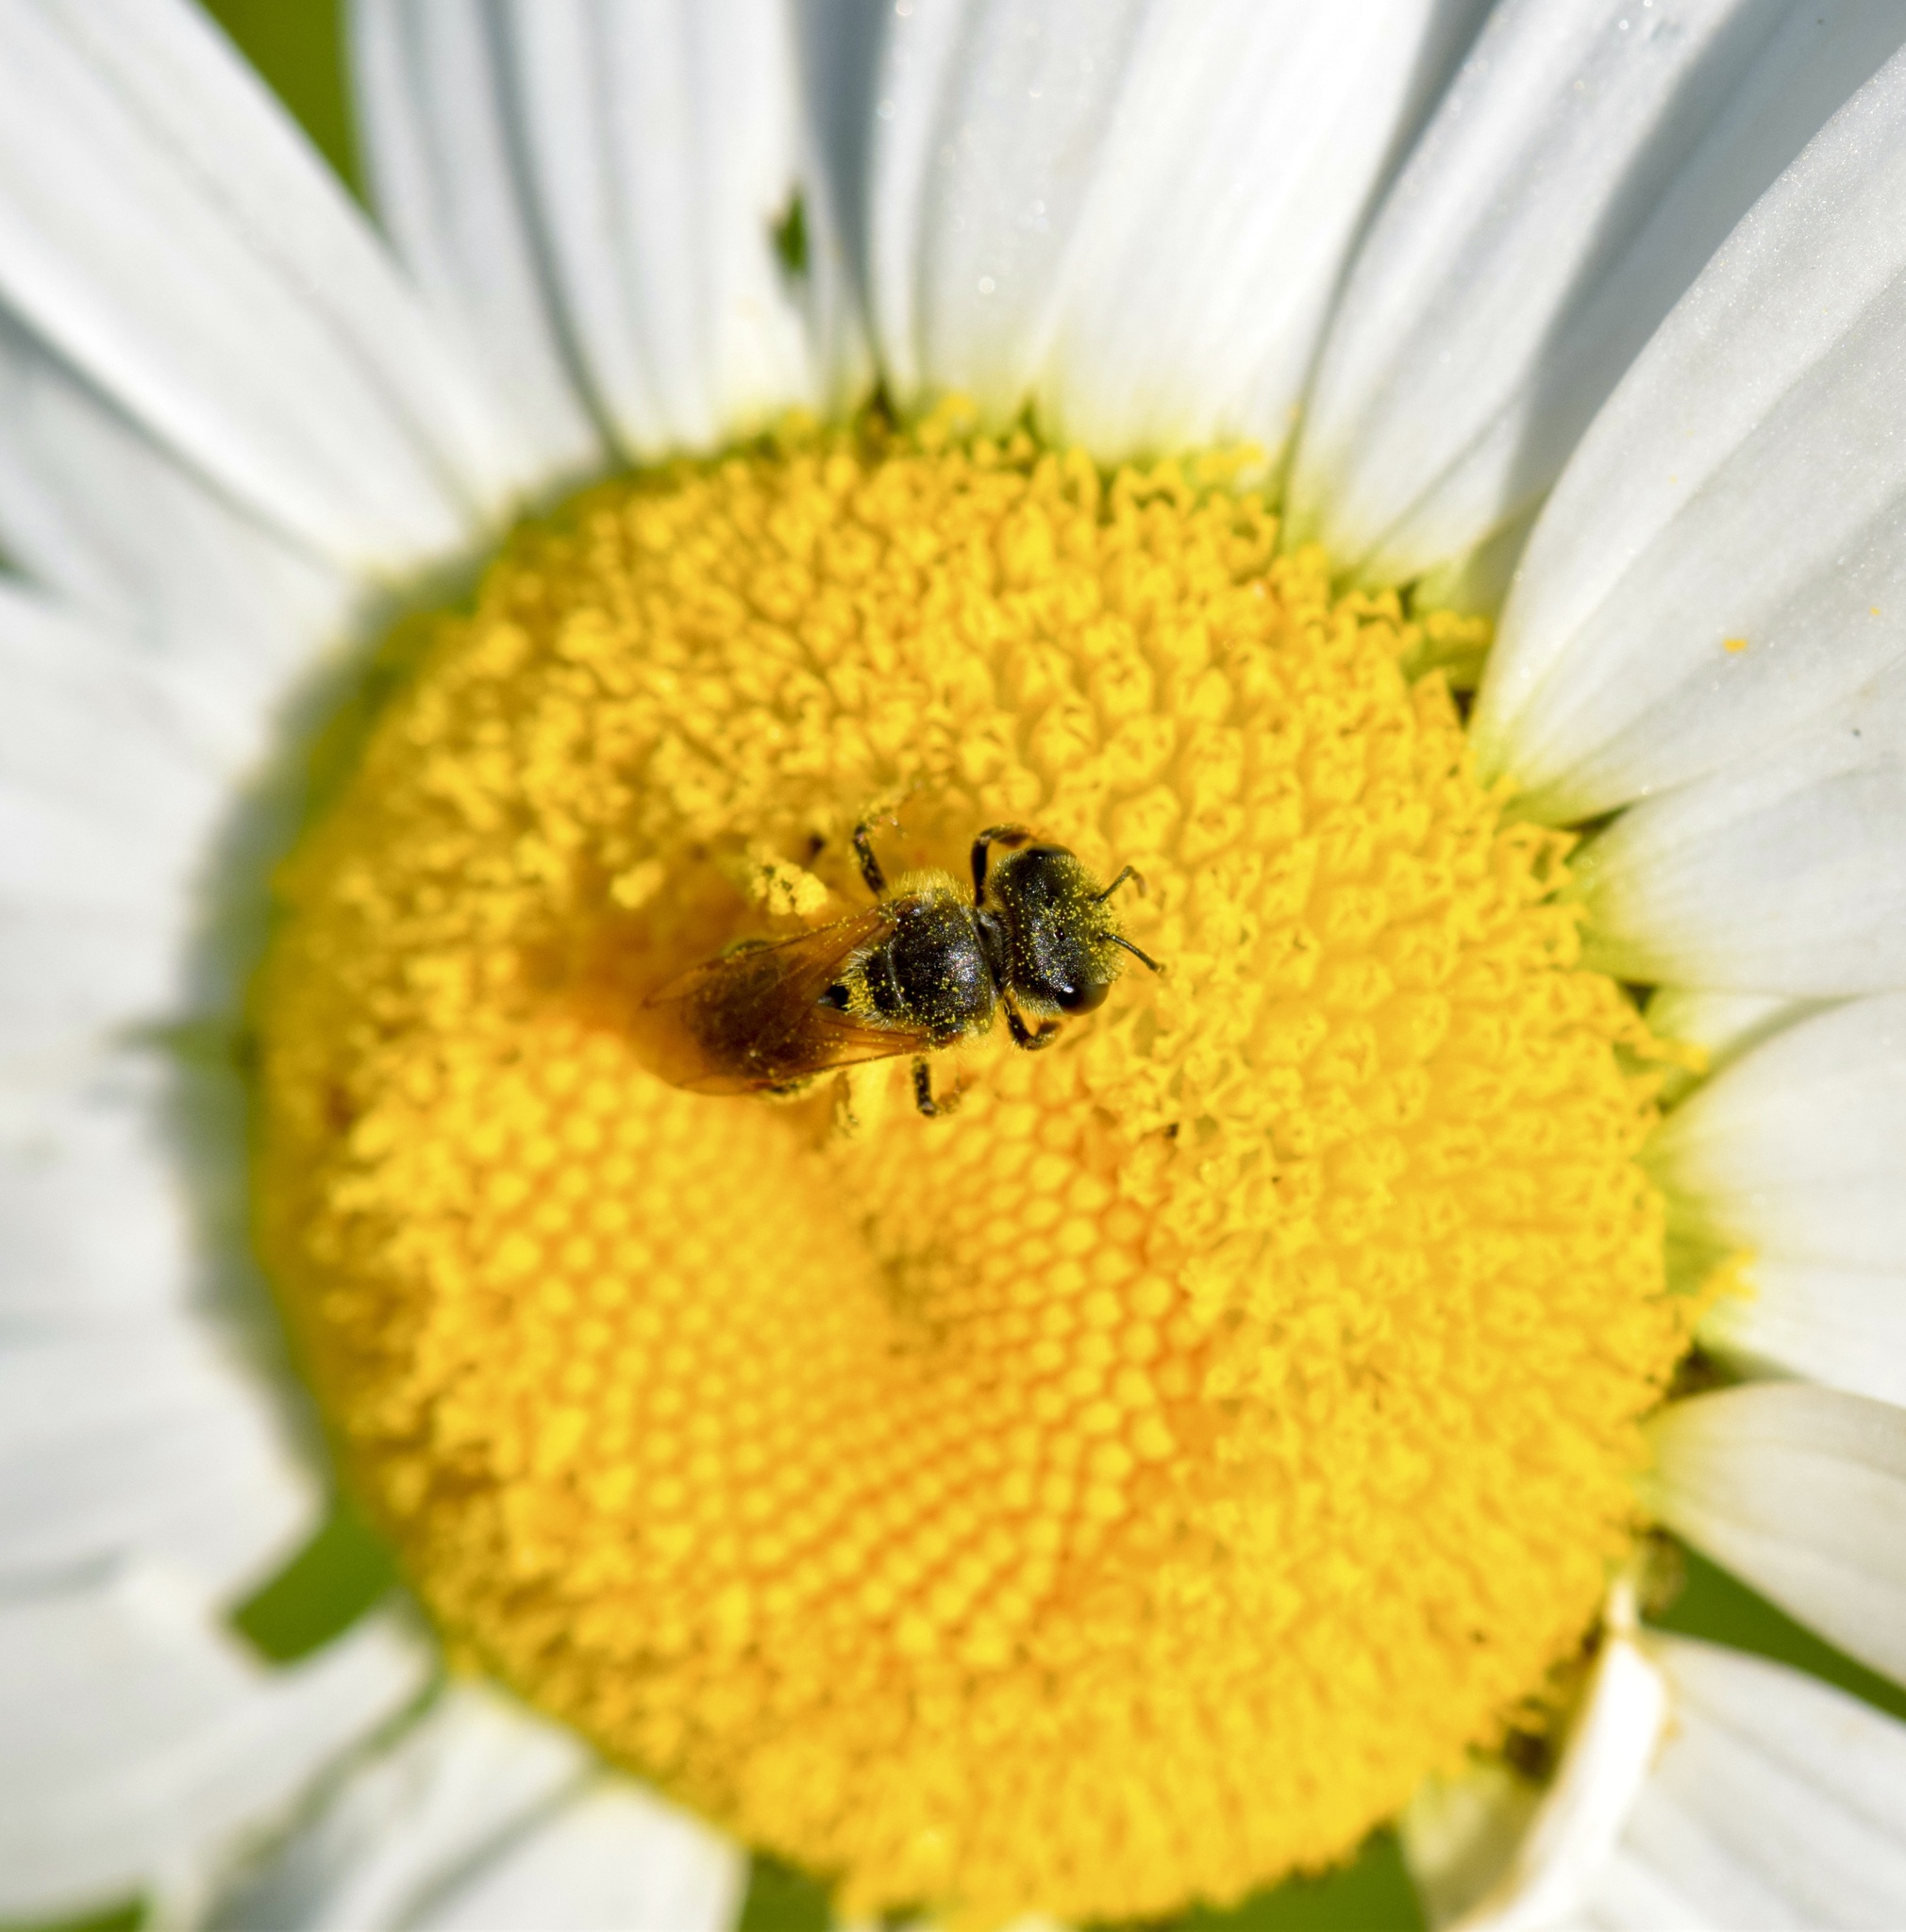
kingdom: Animalia
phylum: Arthropoda
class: Insecta
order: Hymenoptera
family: Halictidae
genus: Halictus
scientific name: Halictus ligatus
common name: Ligated furrow bee
